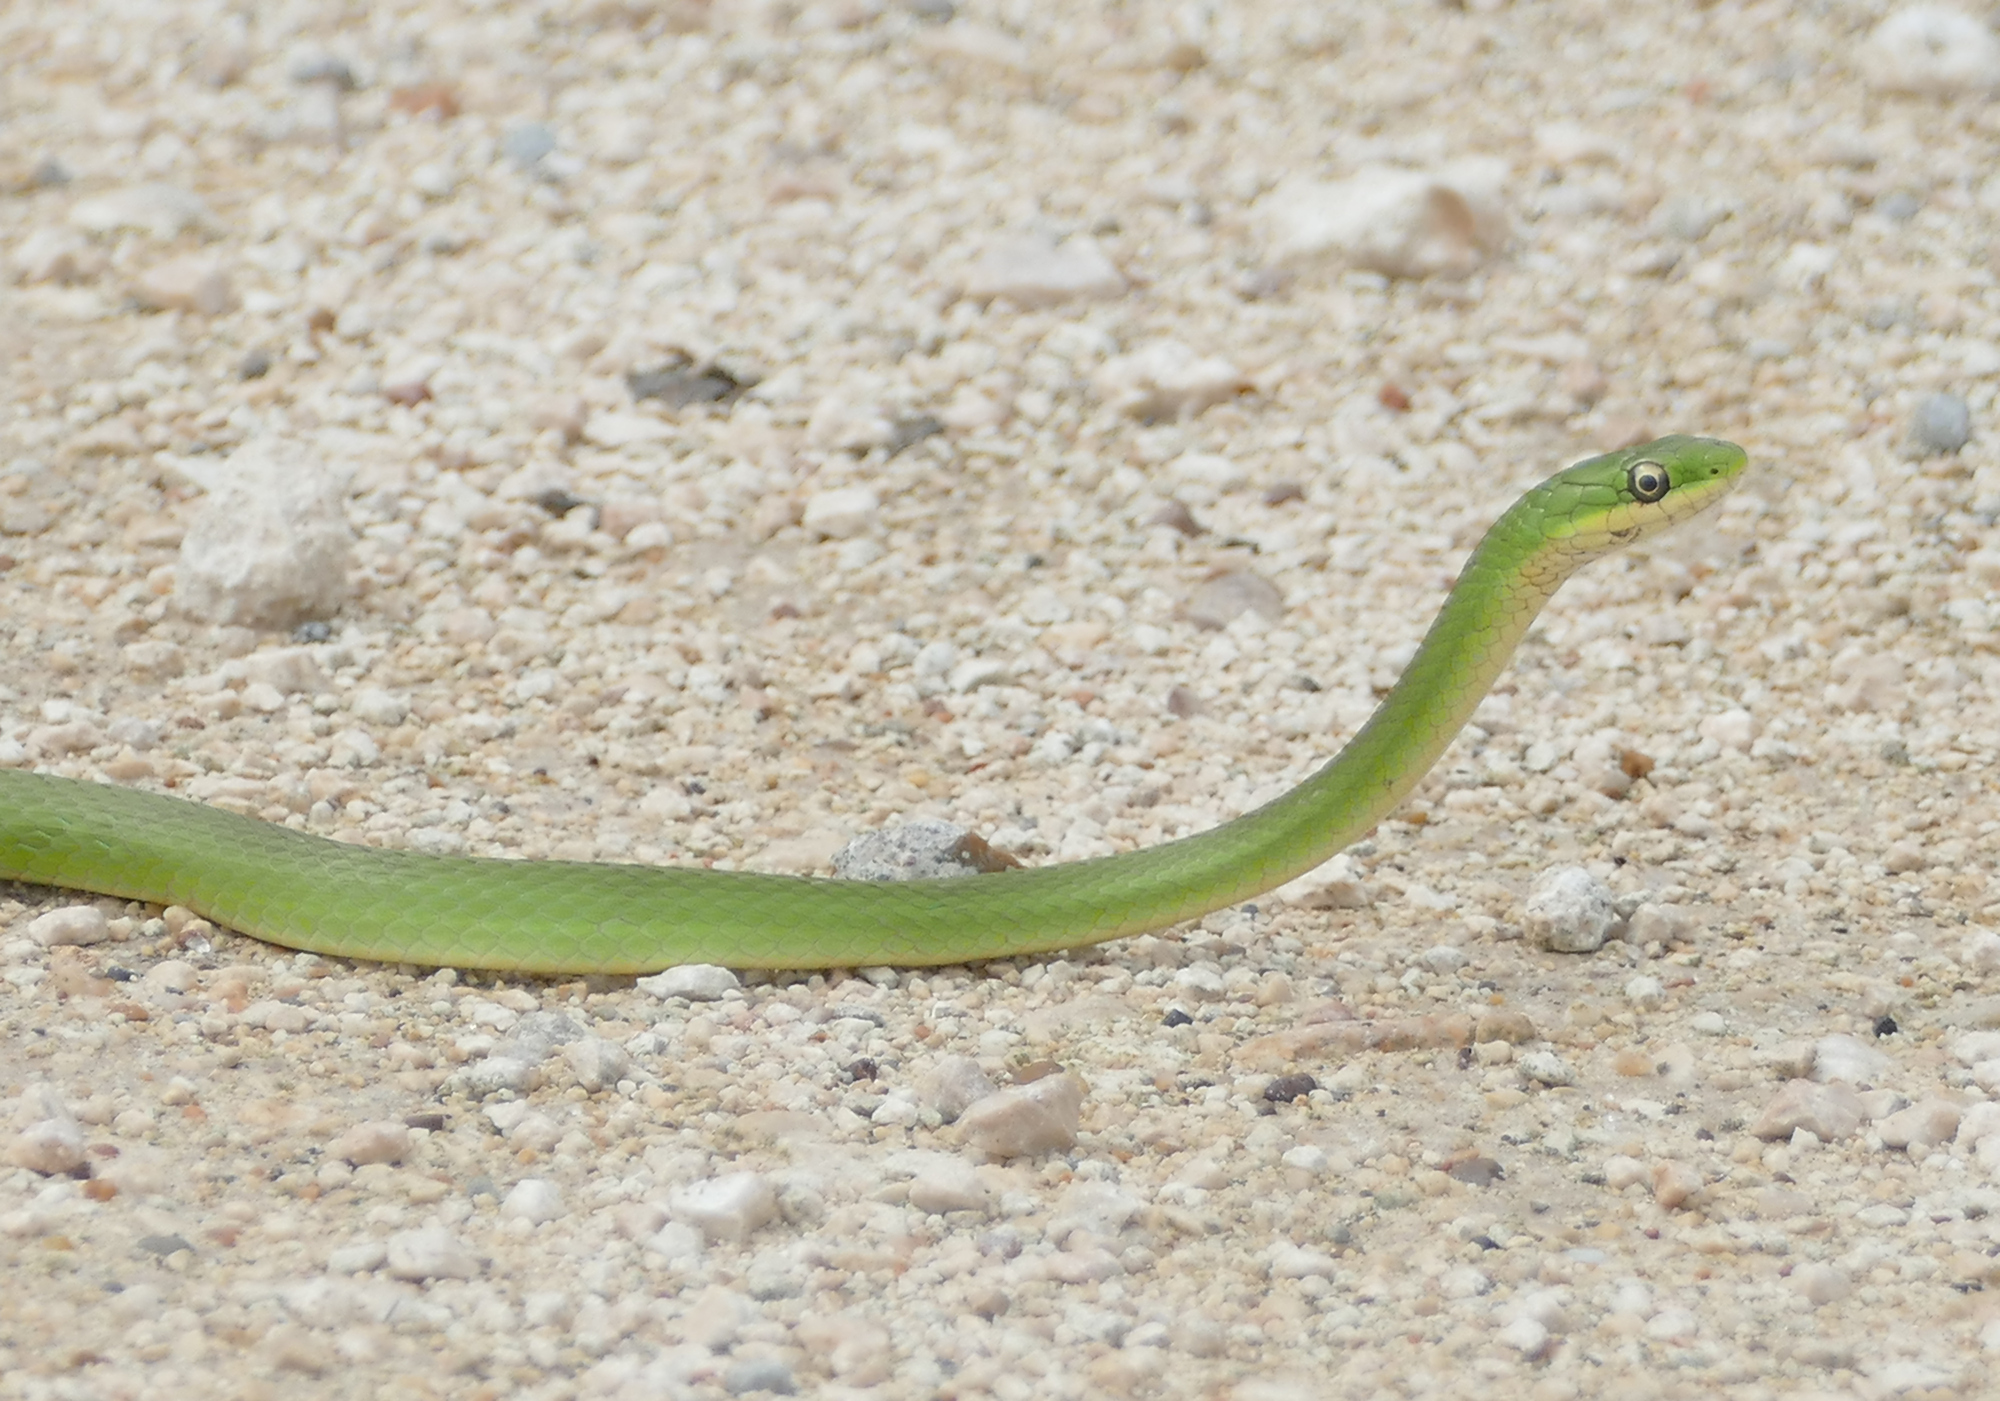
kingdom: Animalia
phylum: Chordata
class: Squamata
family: Colubridae
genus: Opheodrys
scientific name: Opheodrys aestivus
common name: Rough greensnake
